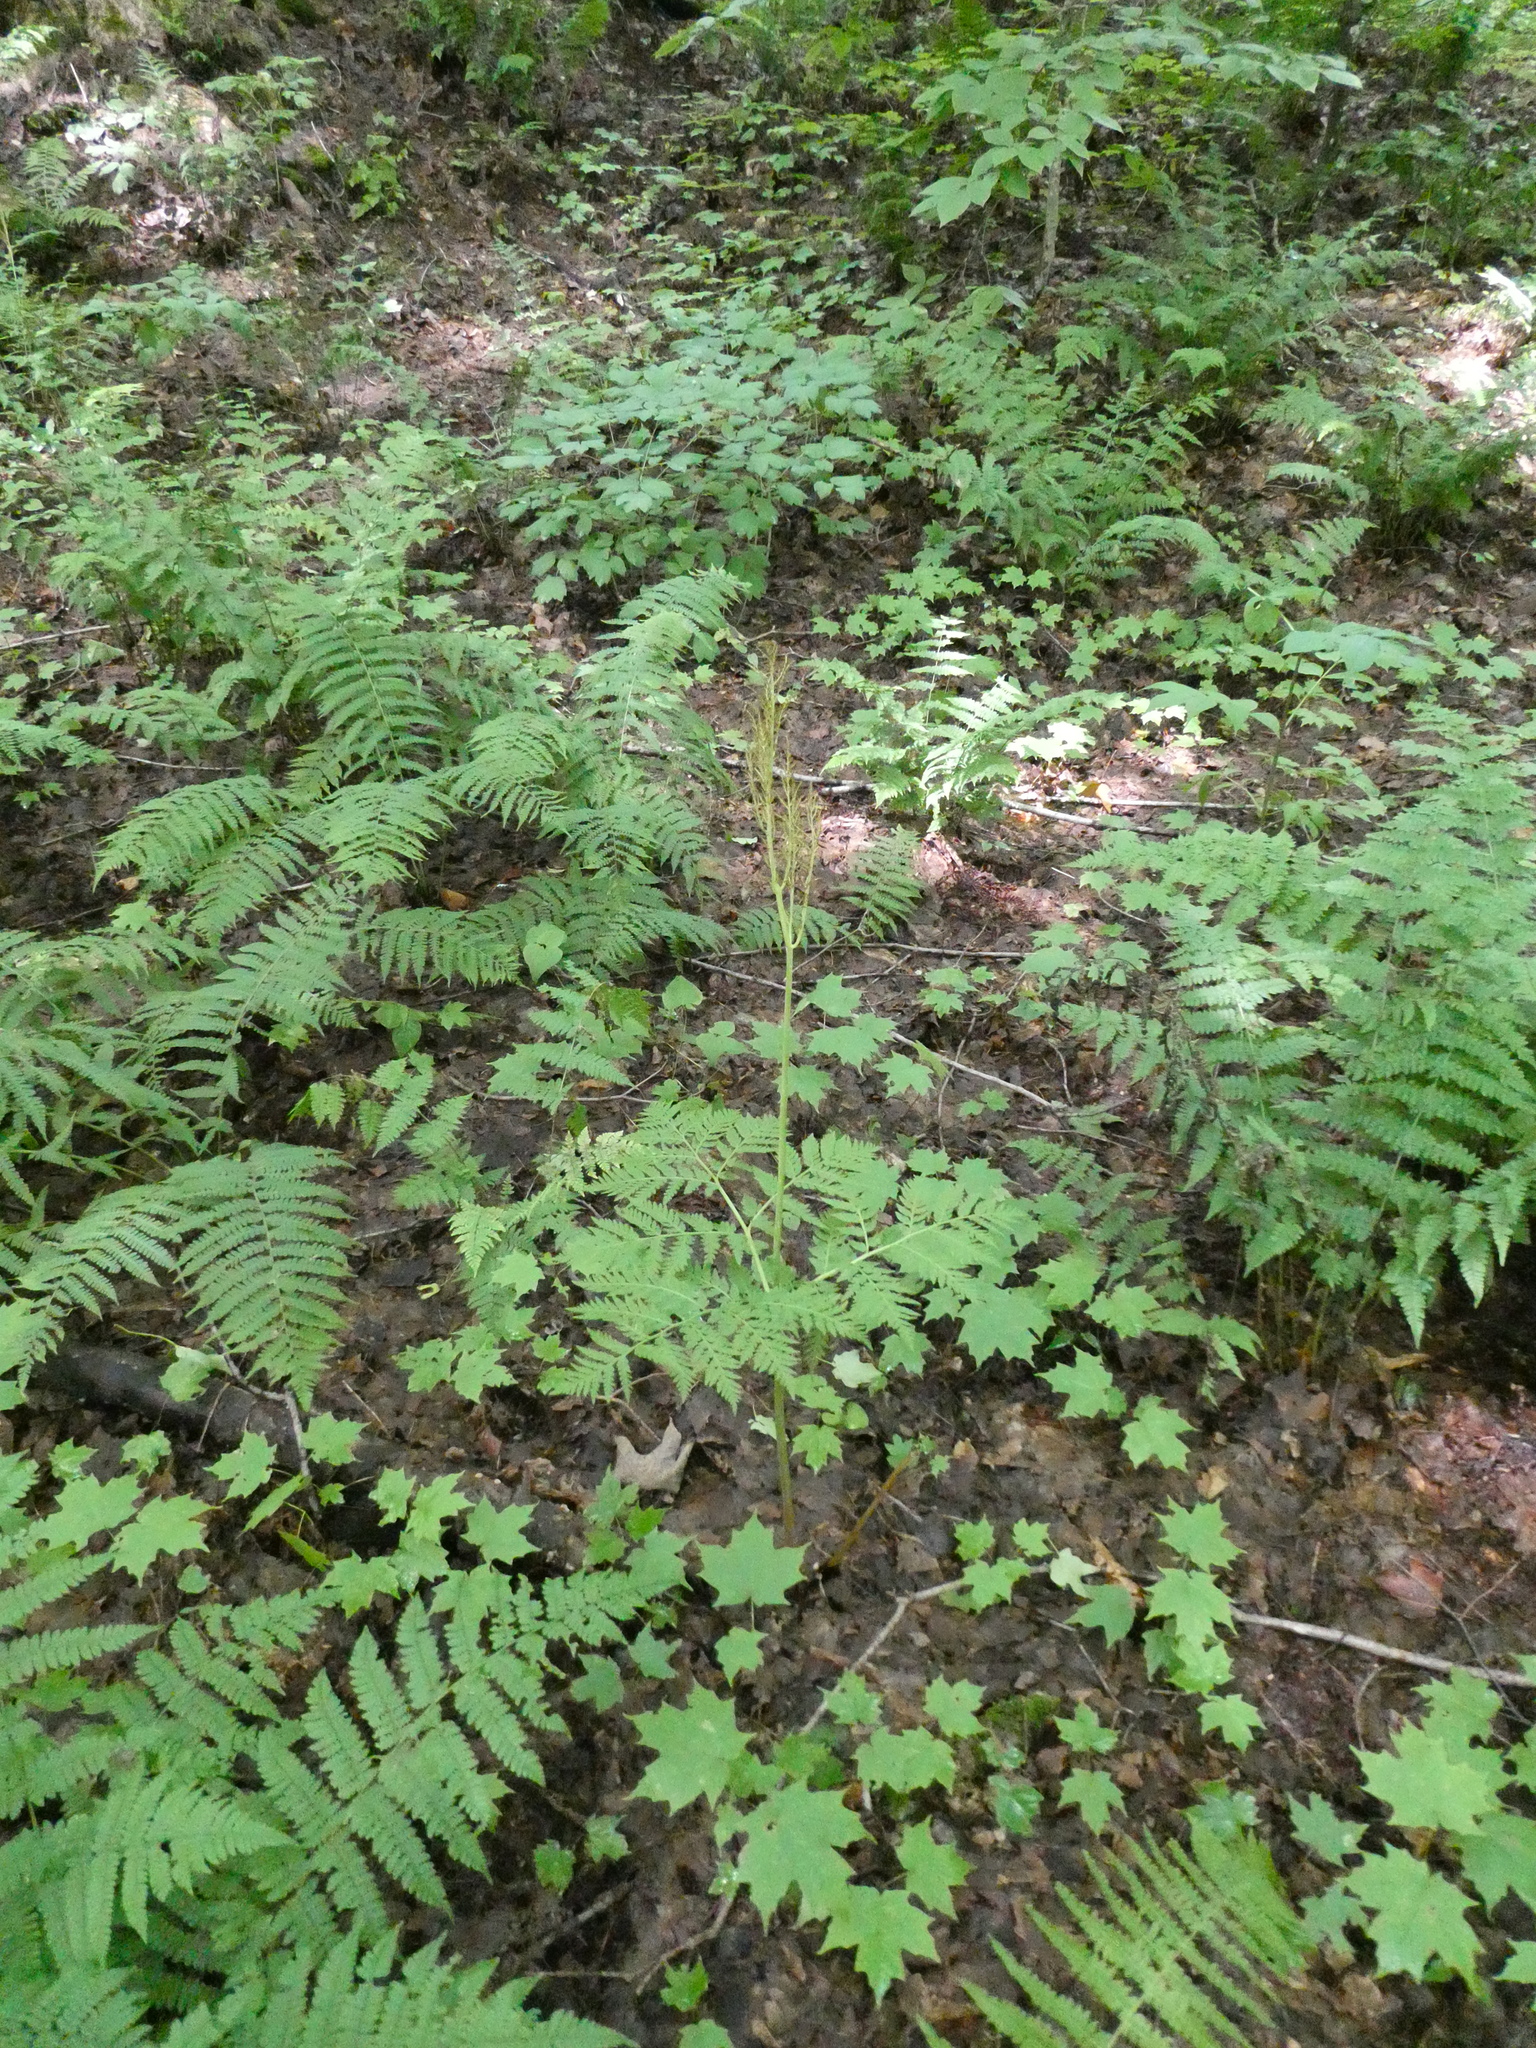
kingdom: Plantae
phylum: Tracheophyta
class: Polypodiopsida
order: Ophioglossales
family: Ophioglossaceae
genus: Botrypus
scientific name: Botrypus virginianus
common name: Common grapefern
